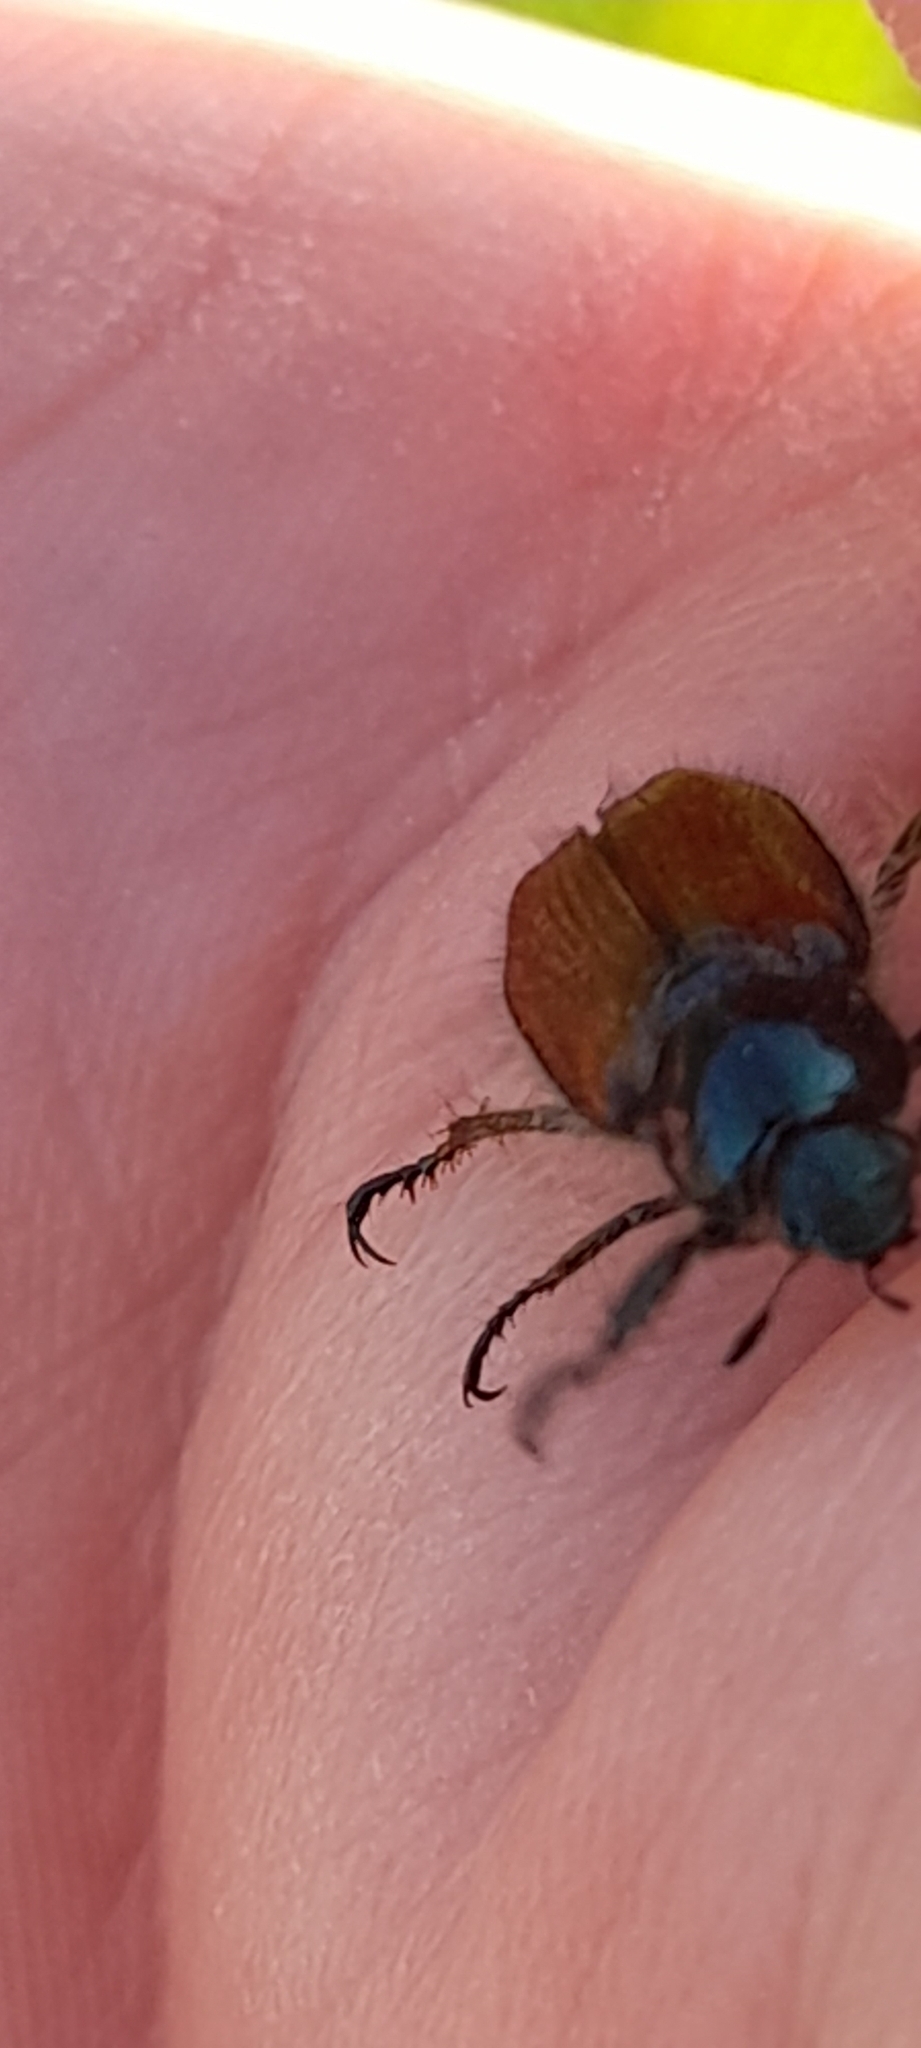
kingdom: Animalia
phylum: Arthropoda
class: Insecta
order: Coleoptera
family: Scarabaeidae
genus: Phyllopertha
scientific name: Phyllopertha horticola
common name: Garden chafer
